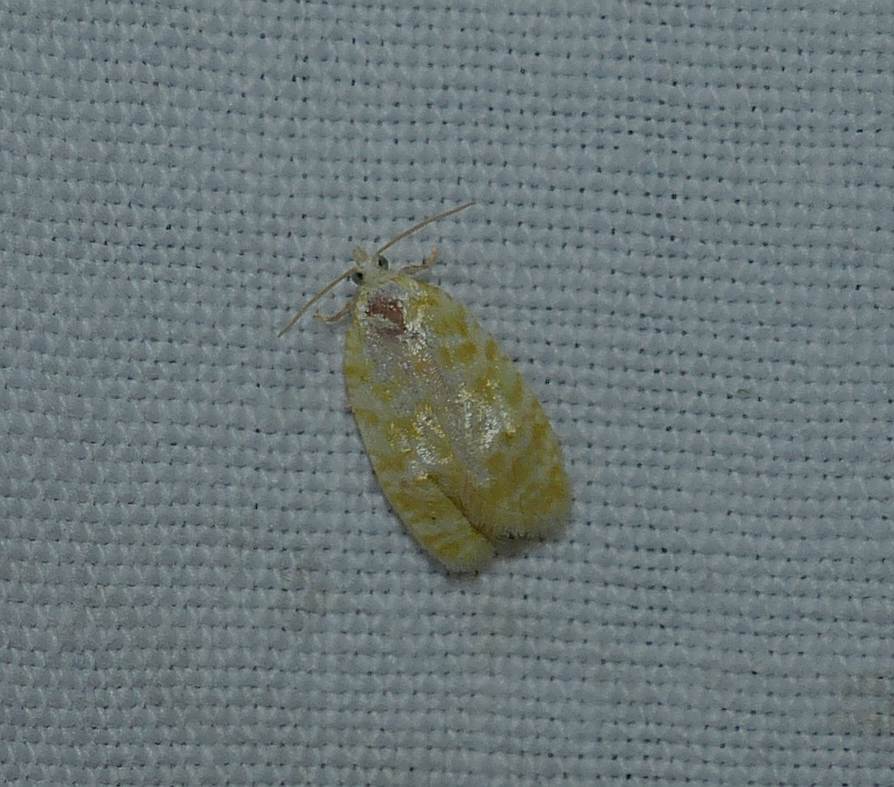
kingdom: Animalia
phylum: Arthropoda
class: Insecta
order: Lepidoptera
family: Tortricidae
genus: Acleris
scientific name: Acleris semipurpurana
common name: Oak leaftier moth
